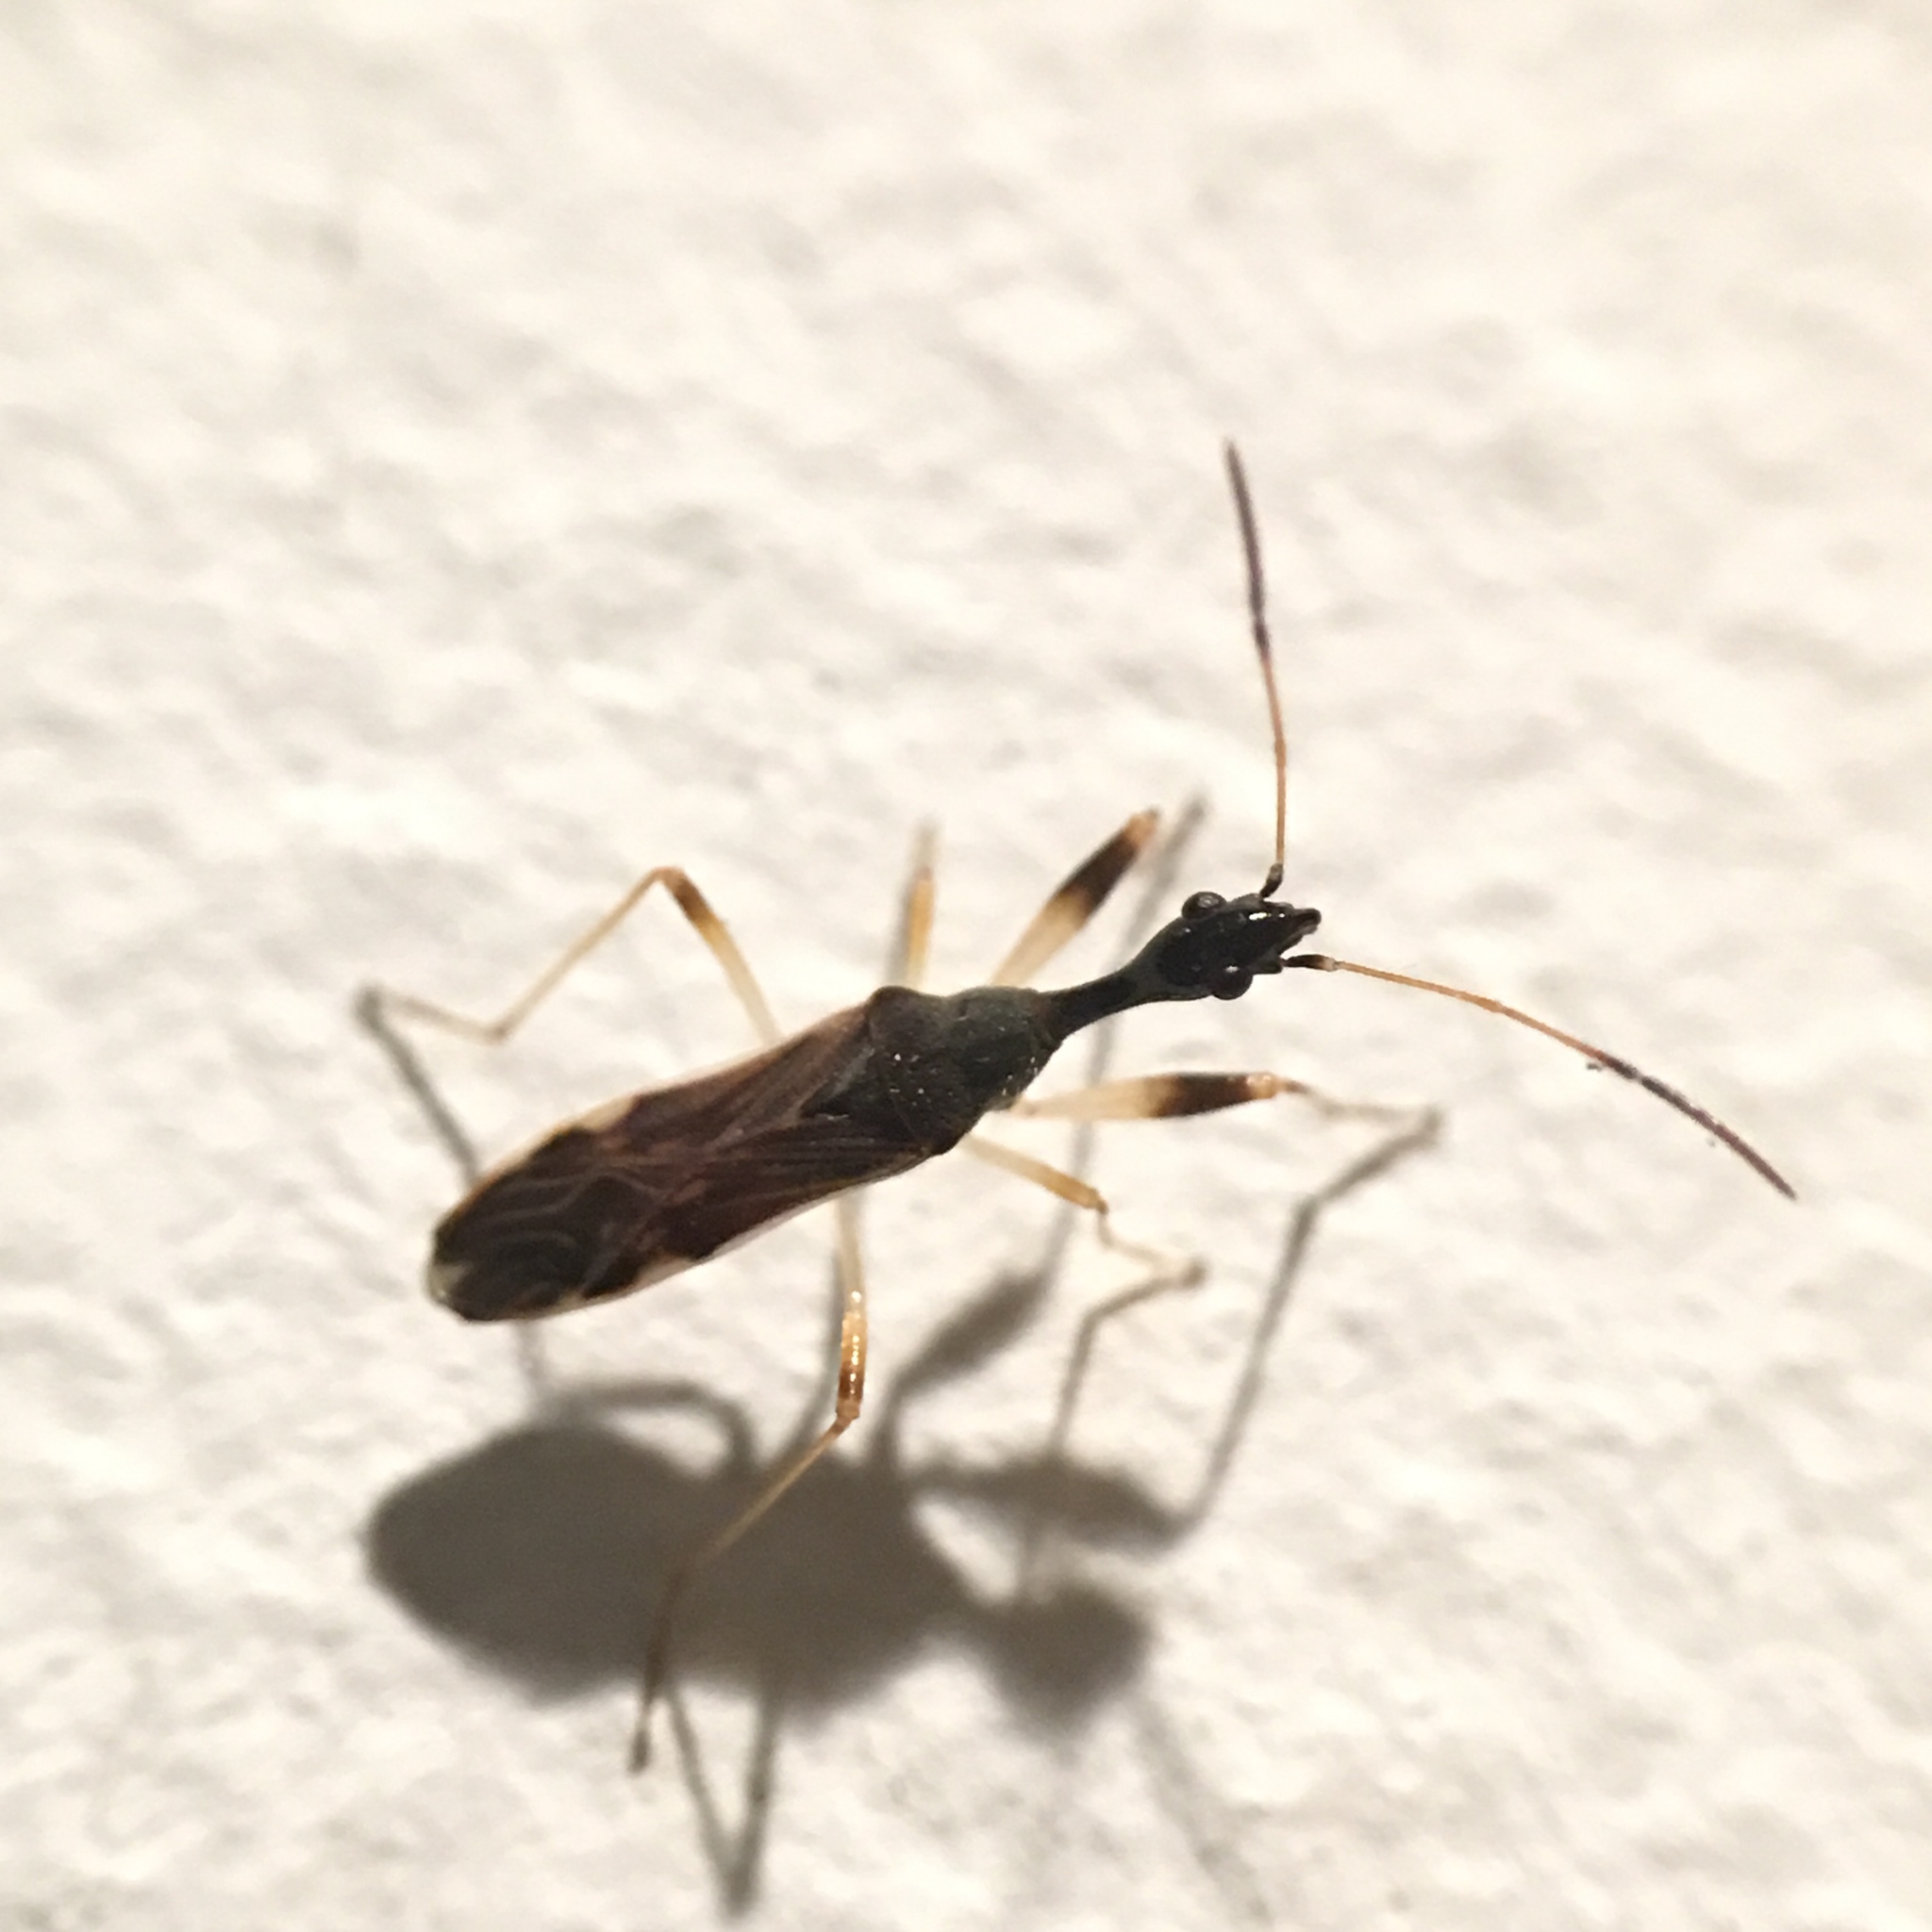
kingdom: Animalia
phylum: Arthropoda
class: Insecta
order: Hemiptera
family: Rhyparochromidae
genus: Myodocha
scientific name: Myodocha serripes
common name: Long-necked seed bug
